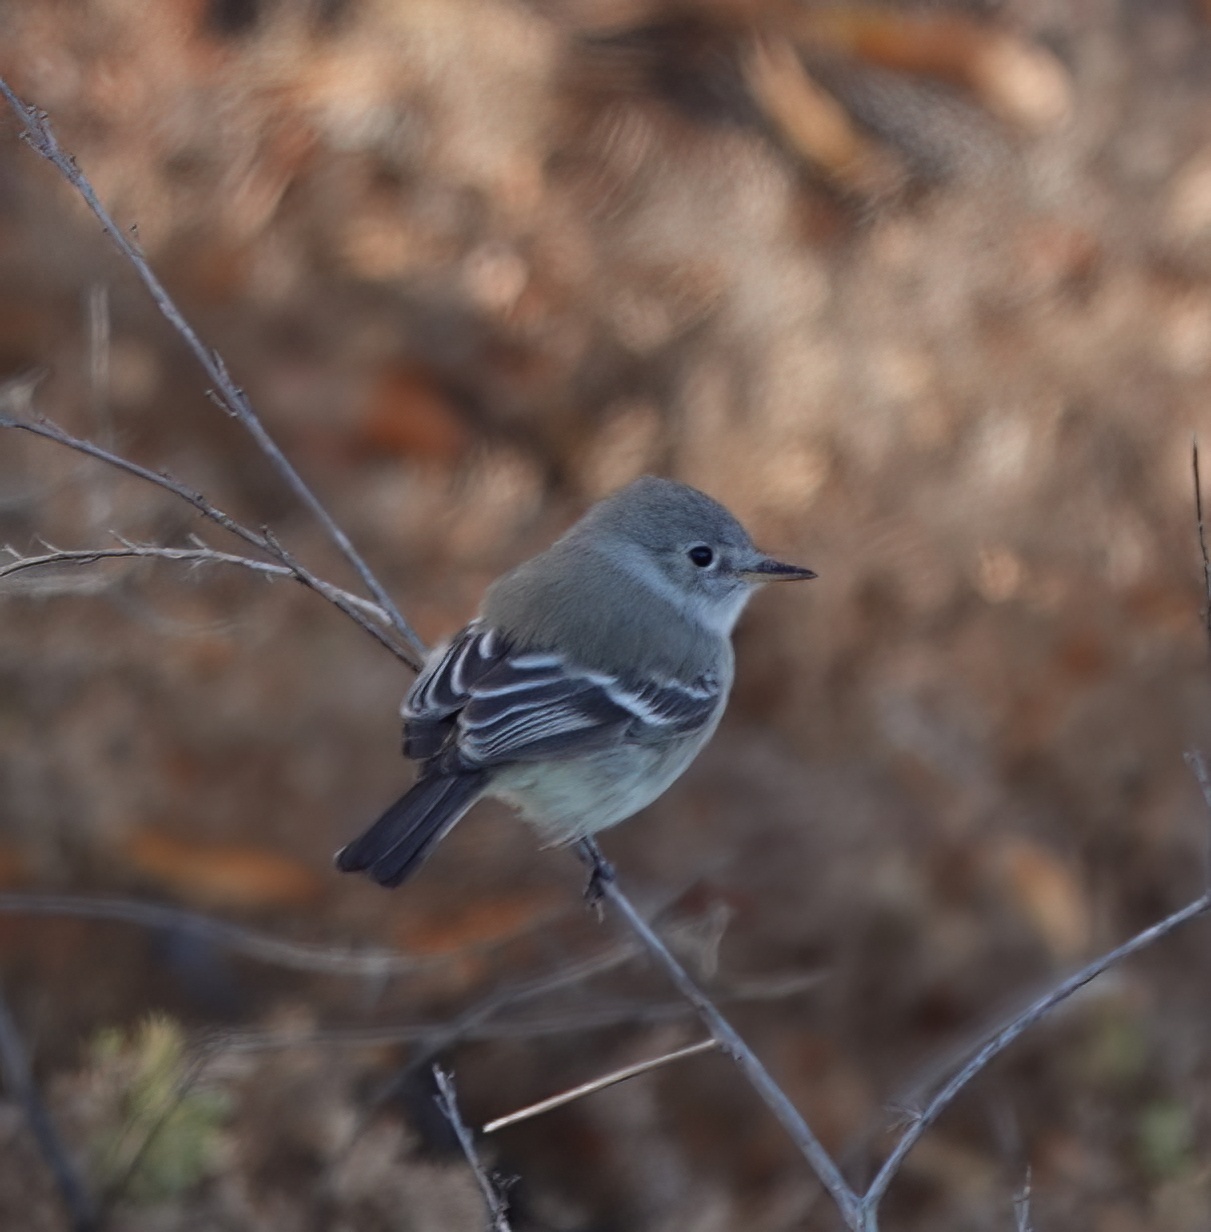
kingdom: Animalia
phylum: Chordata
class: Aves
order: Passeriformes
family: Tyrannidae
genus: Empidonax
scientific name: Empidonax wrightii
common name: Gray flycatcher
